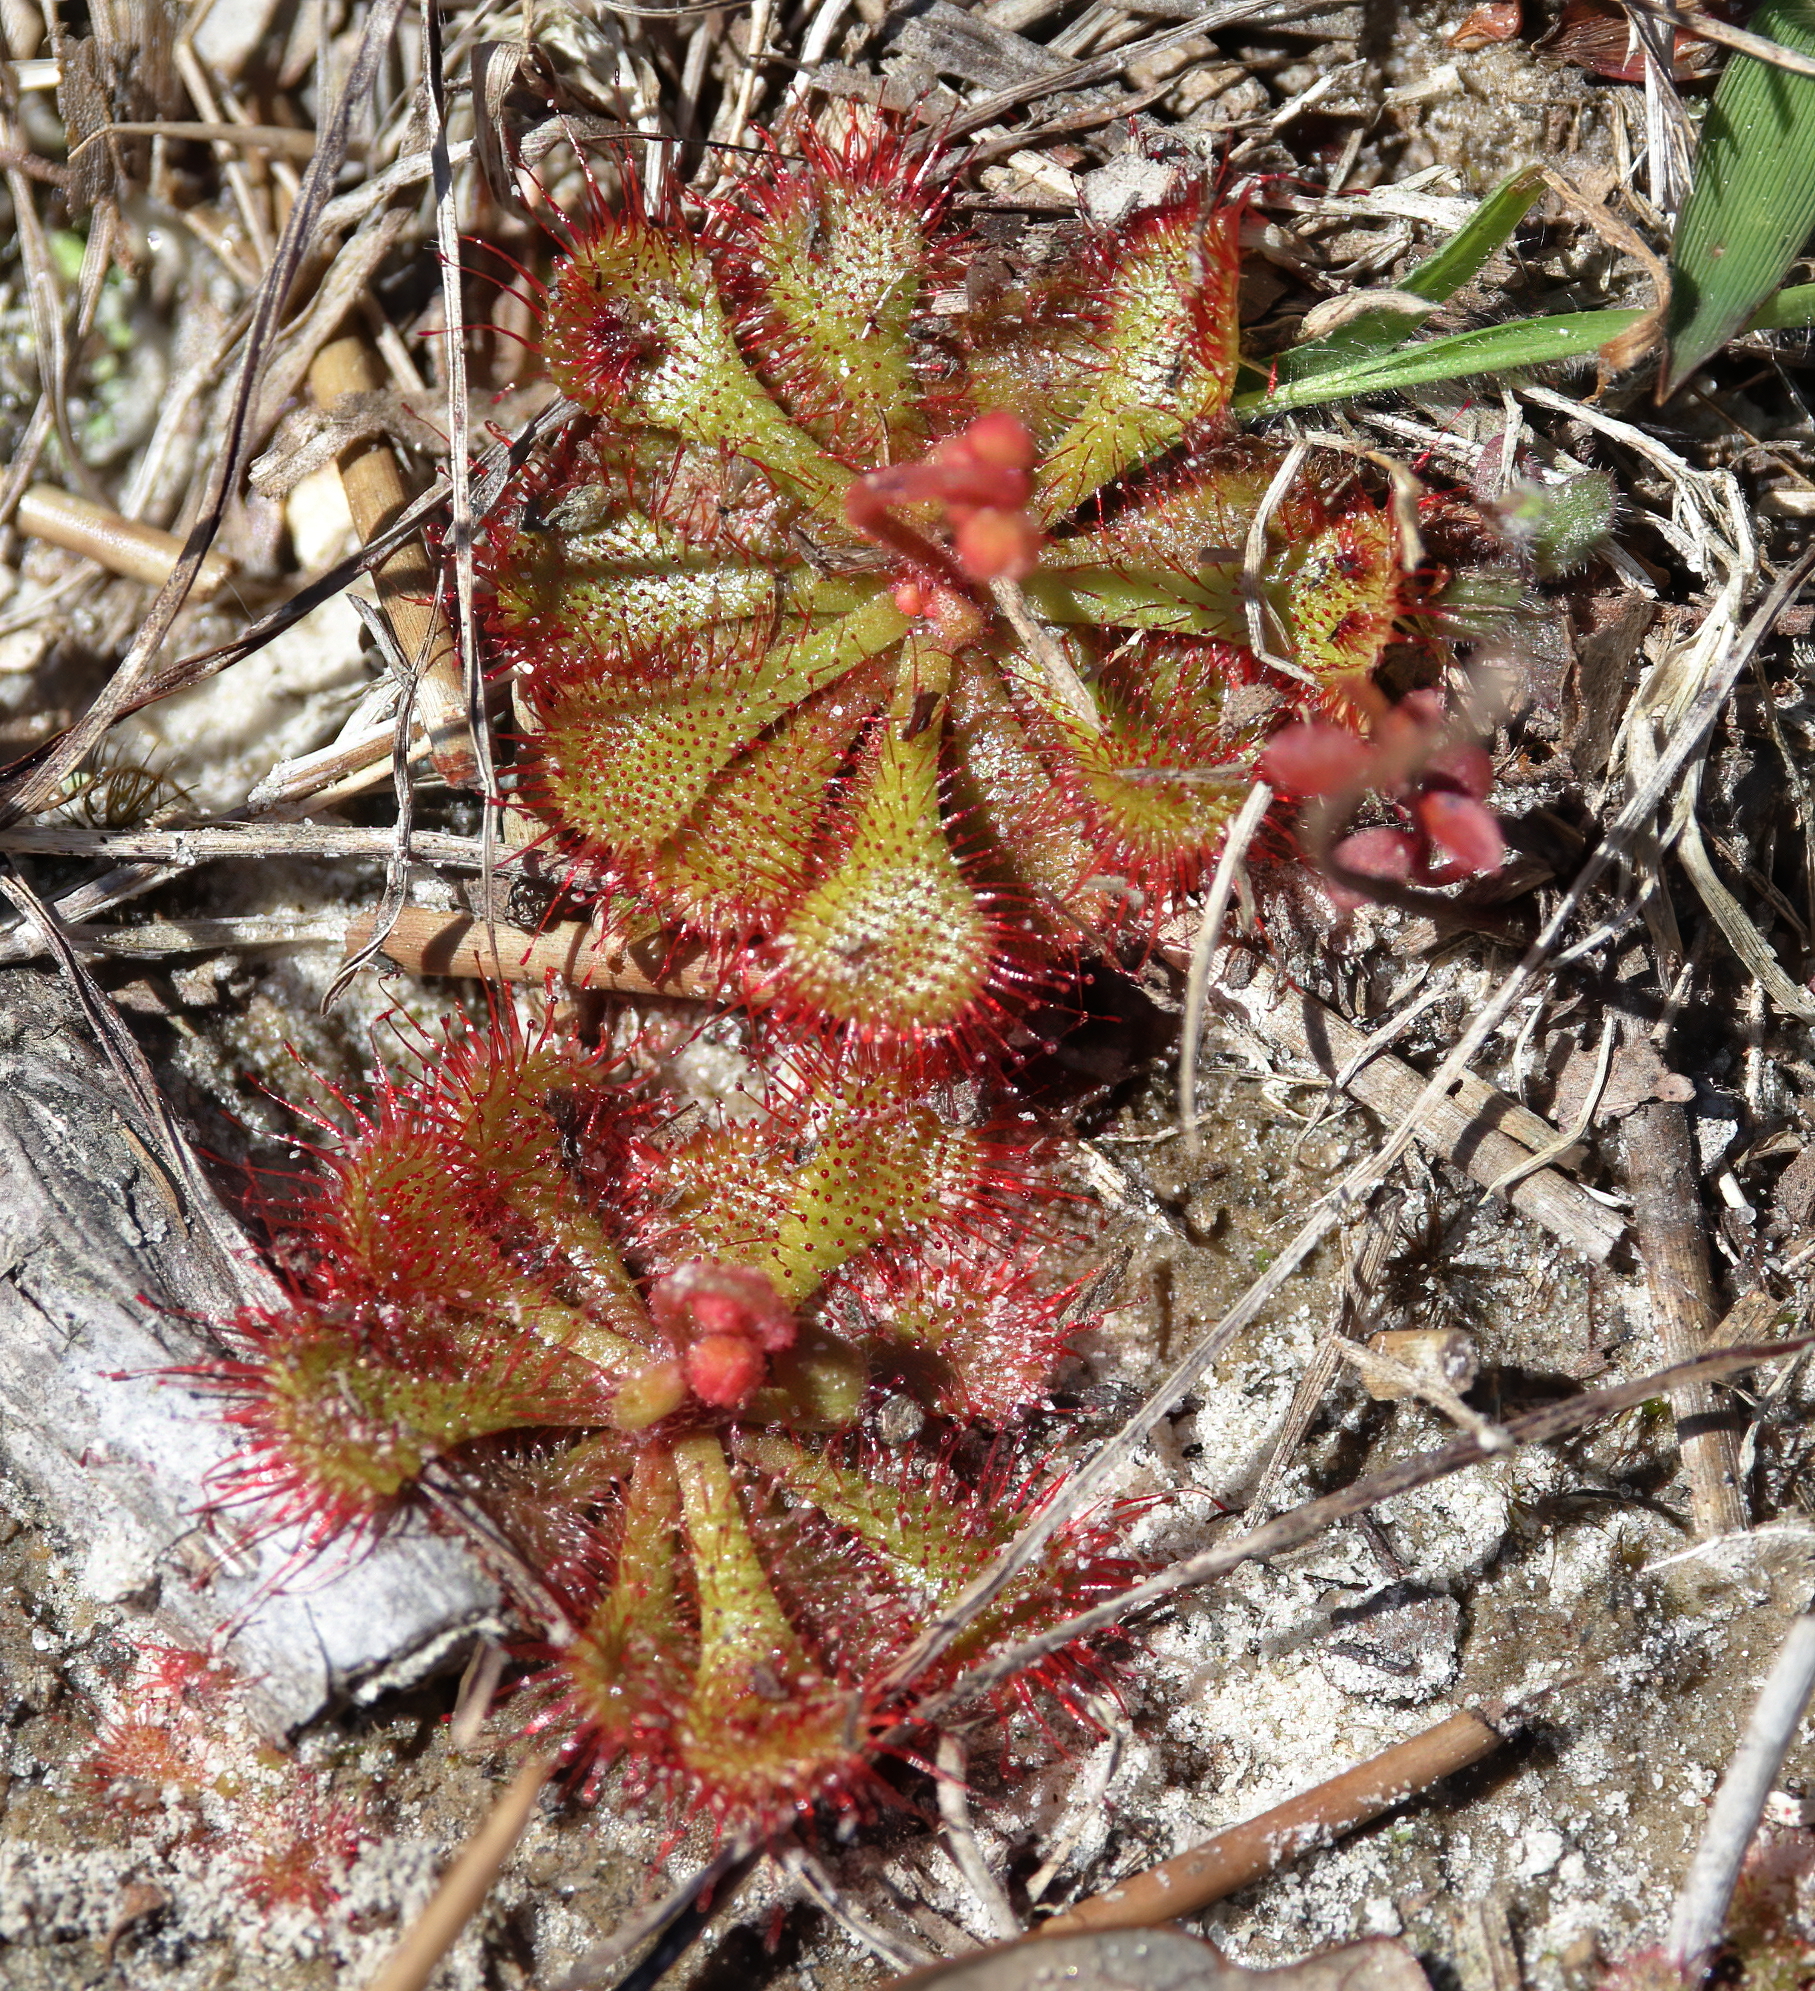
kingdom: Plantae
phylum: Tracheophyta
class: Magnoliopsida
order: Caryophyllales
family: Droseraceae
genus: Drosera
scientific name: Drosera brevifolia
